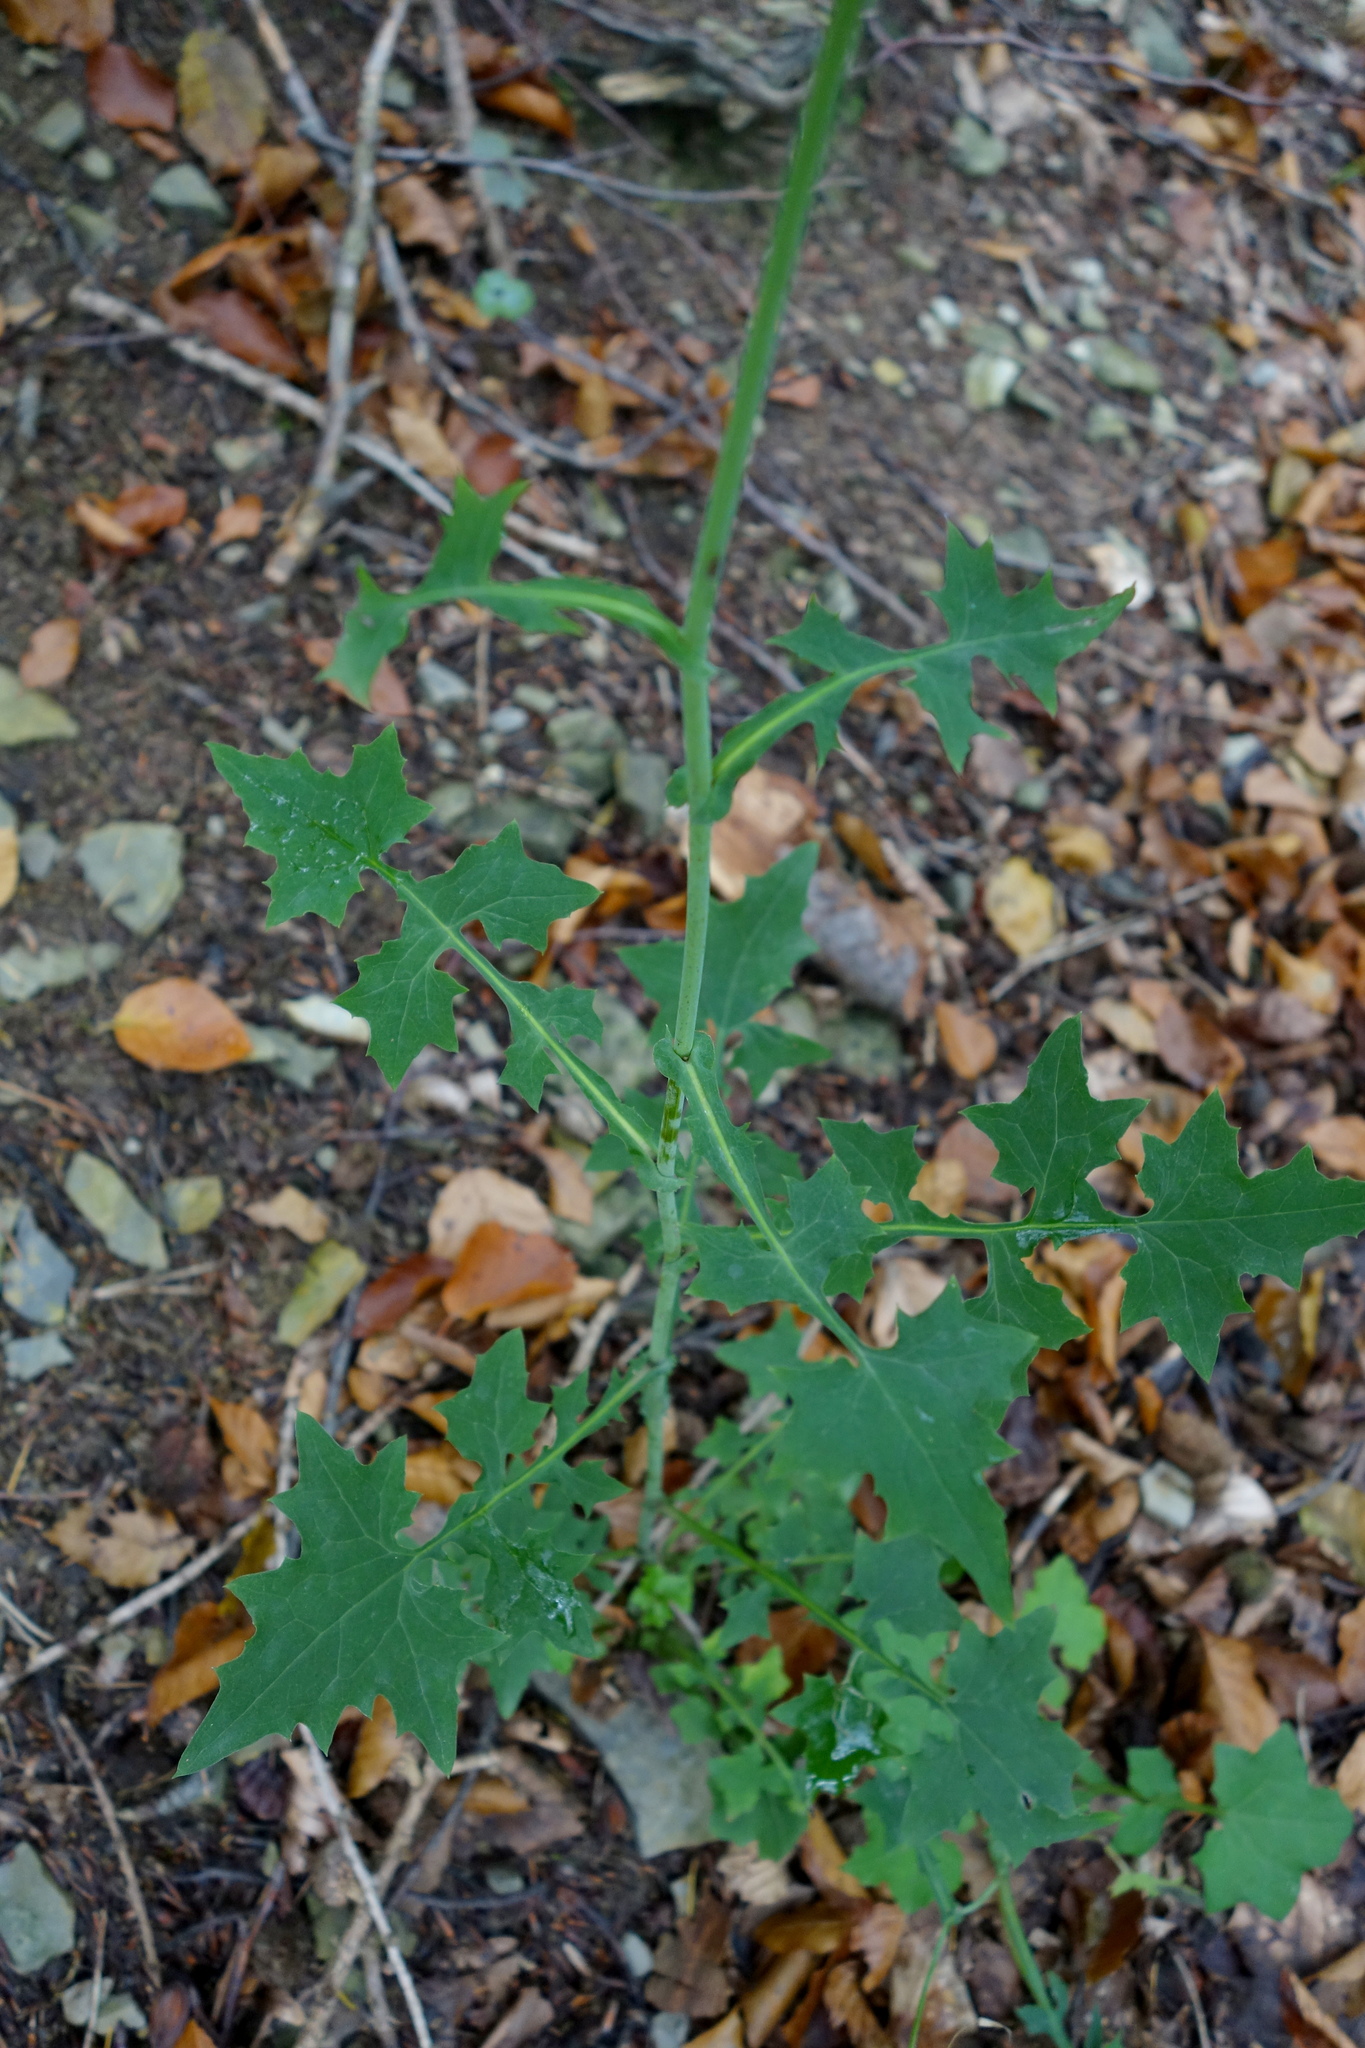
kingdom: Plantae
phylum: Tracheophyta
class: Magnoliopsida
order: Asterales
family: Asteraceae
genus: Mycelis
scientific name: Mycelis muralis
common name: Wall lettuce
